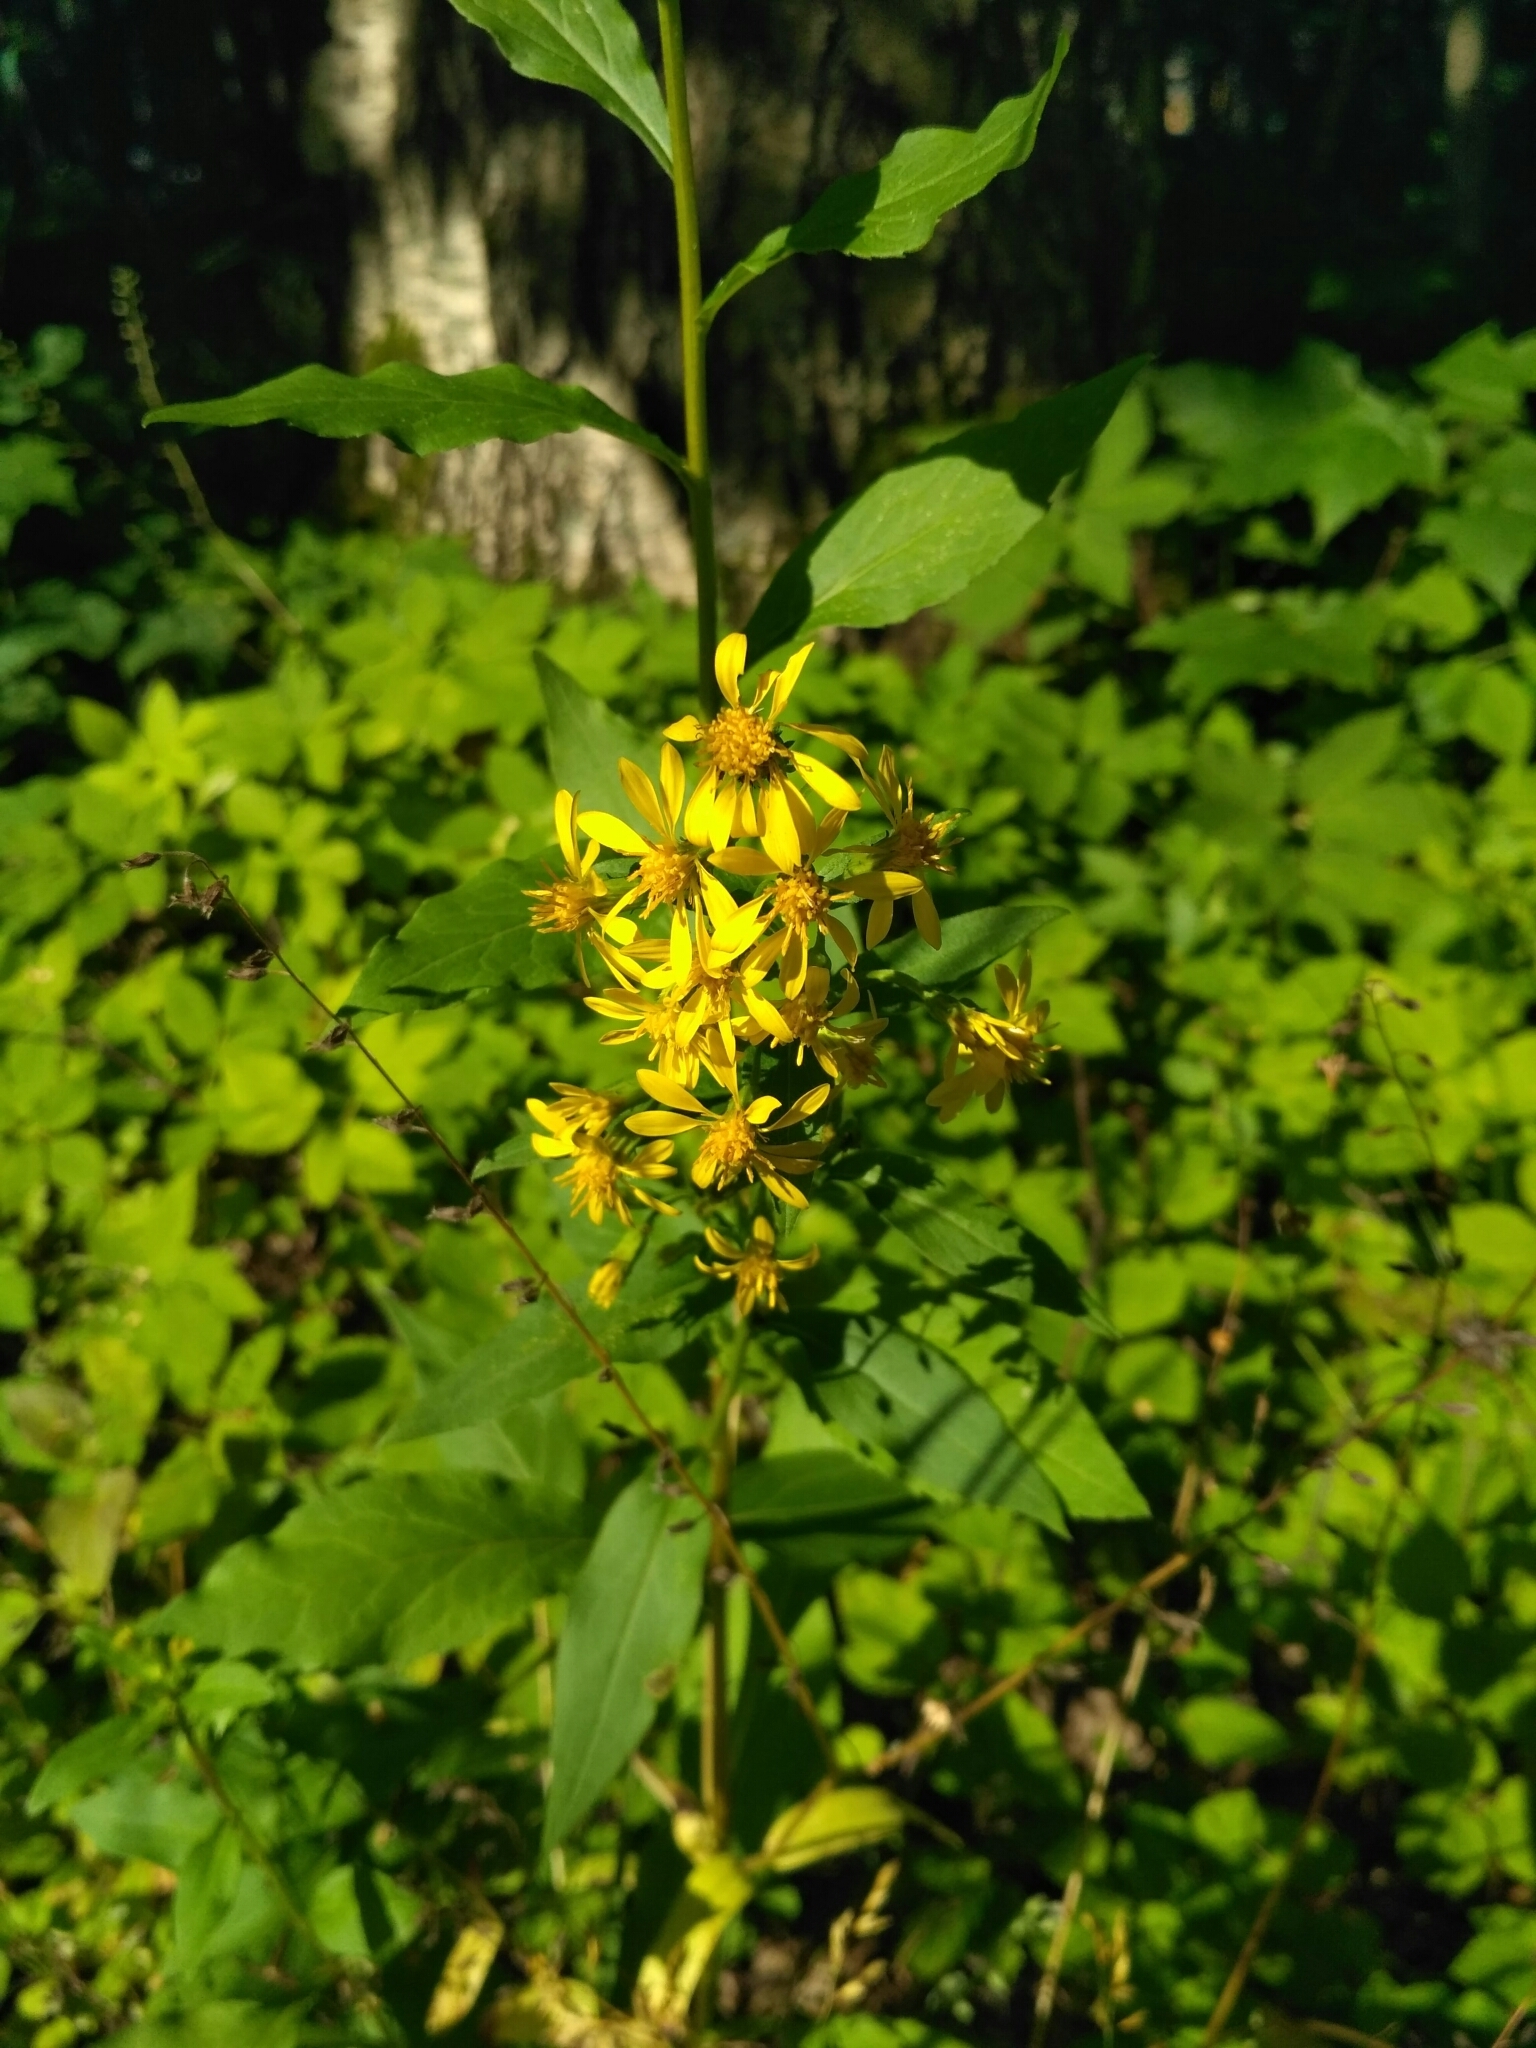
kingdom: Plantae
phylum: Tracheophyta
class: Magnoliopsida
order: Asterales
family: Asteraceae
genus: Solidago
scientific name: Solidago virgaurea
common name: Goldenrod
